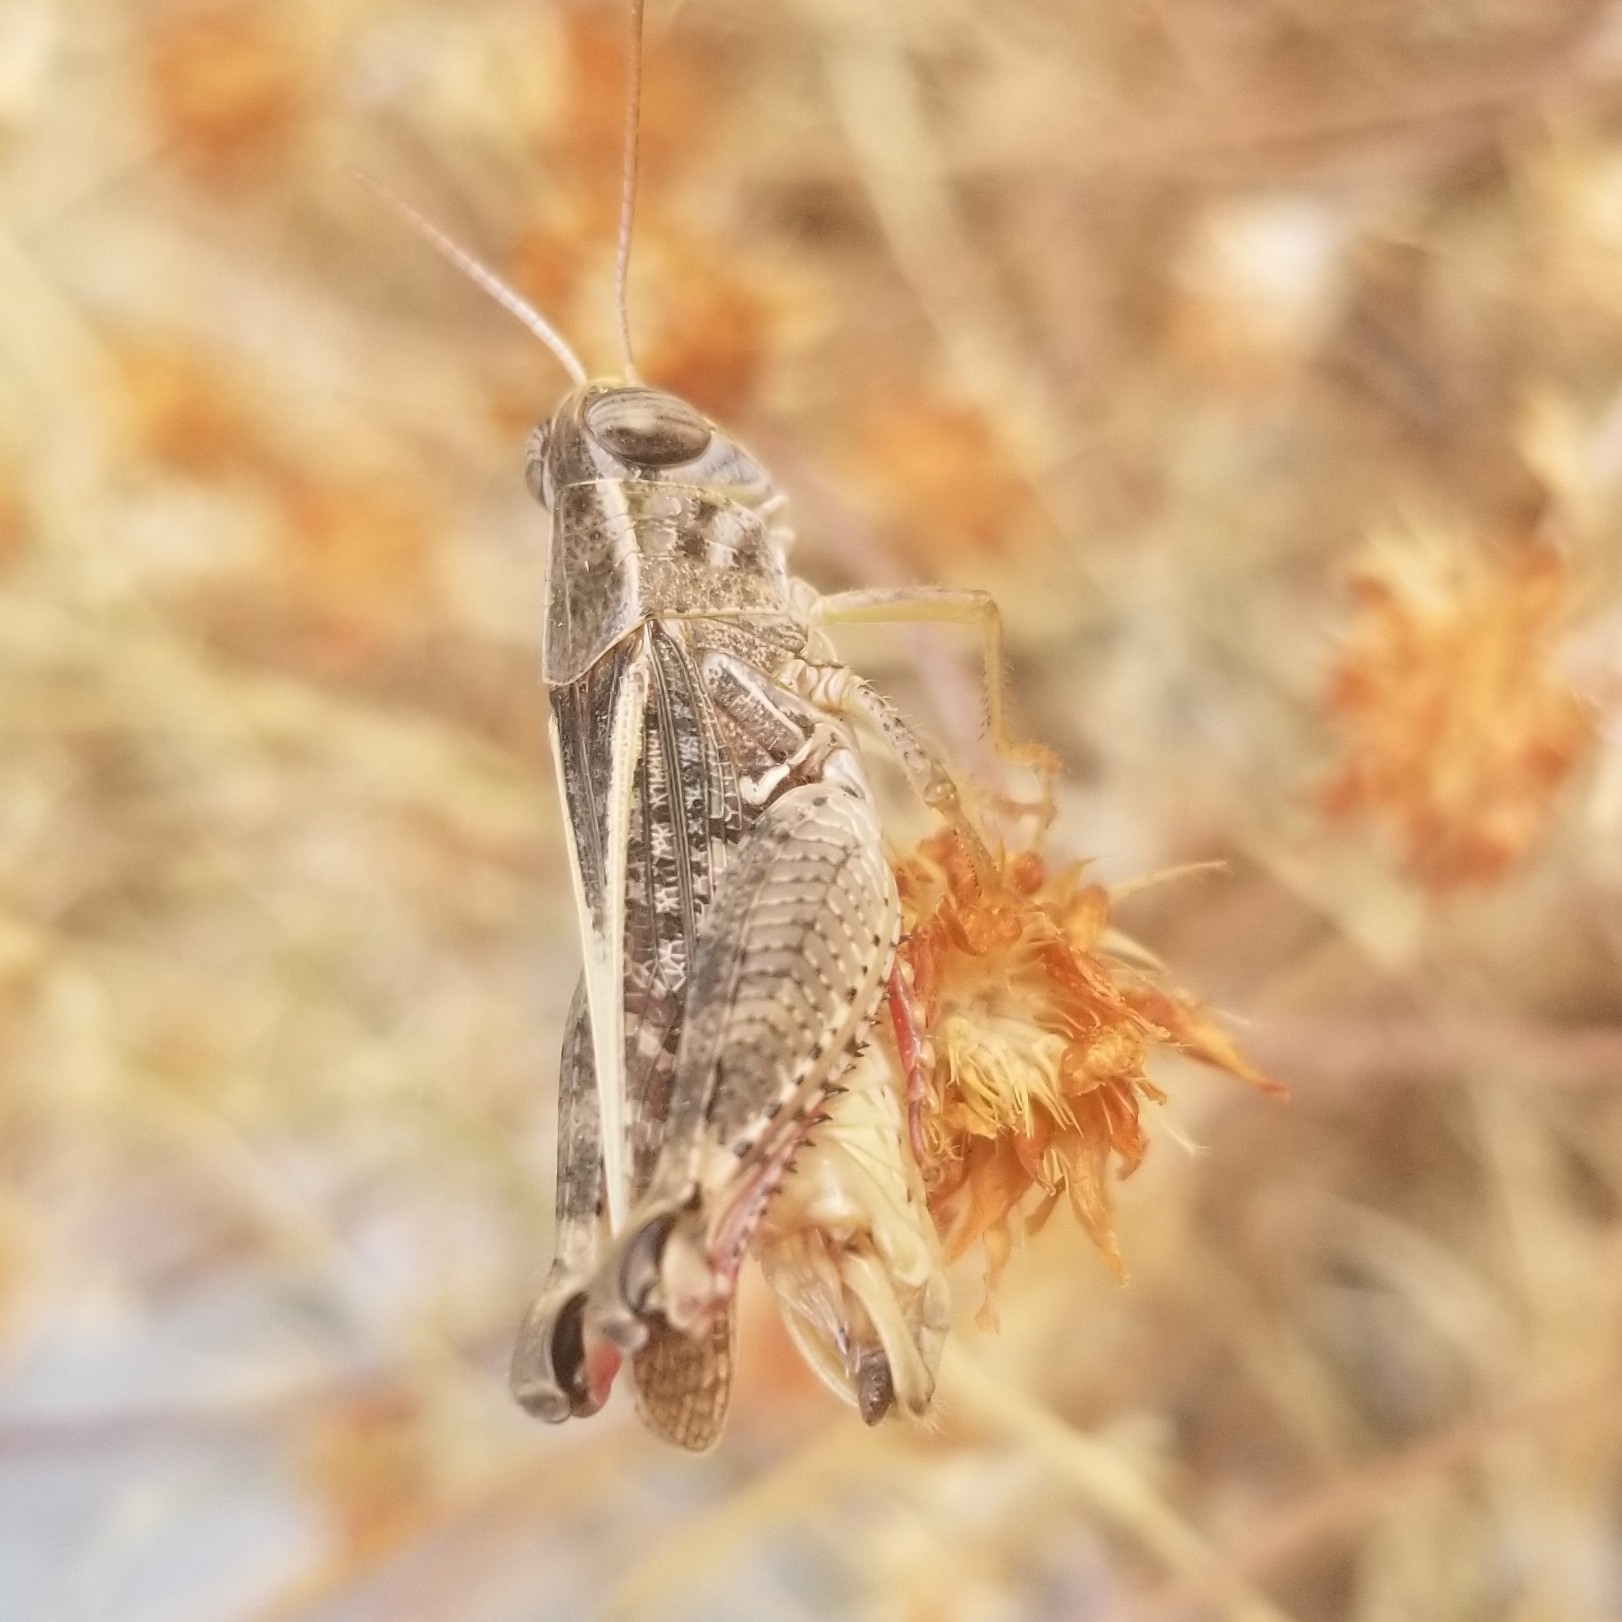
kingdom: Animalia
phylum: Arthropoda
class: Insecta
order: Orthoptera
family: Acrididae
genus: Calliptamus
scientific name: Calliptamus italicus
